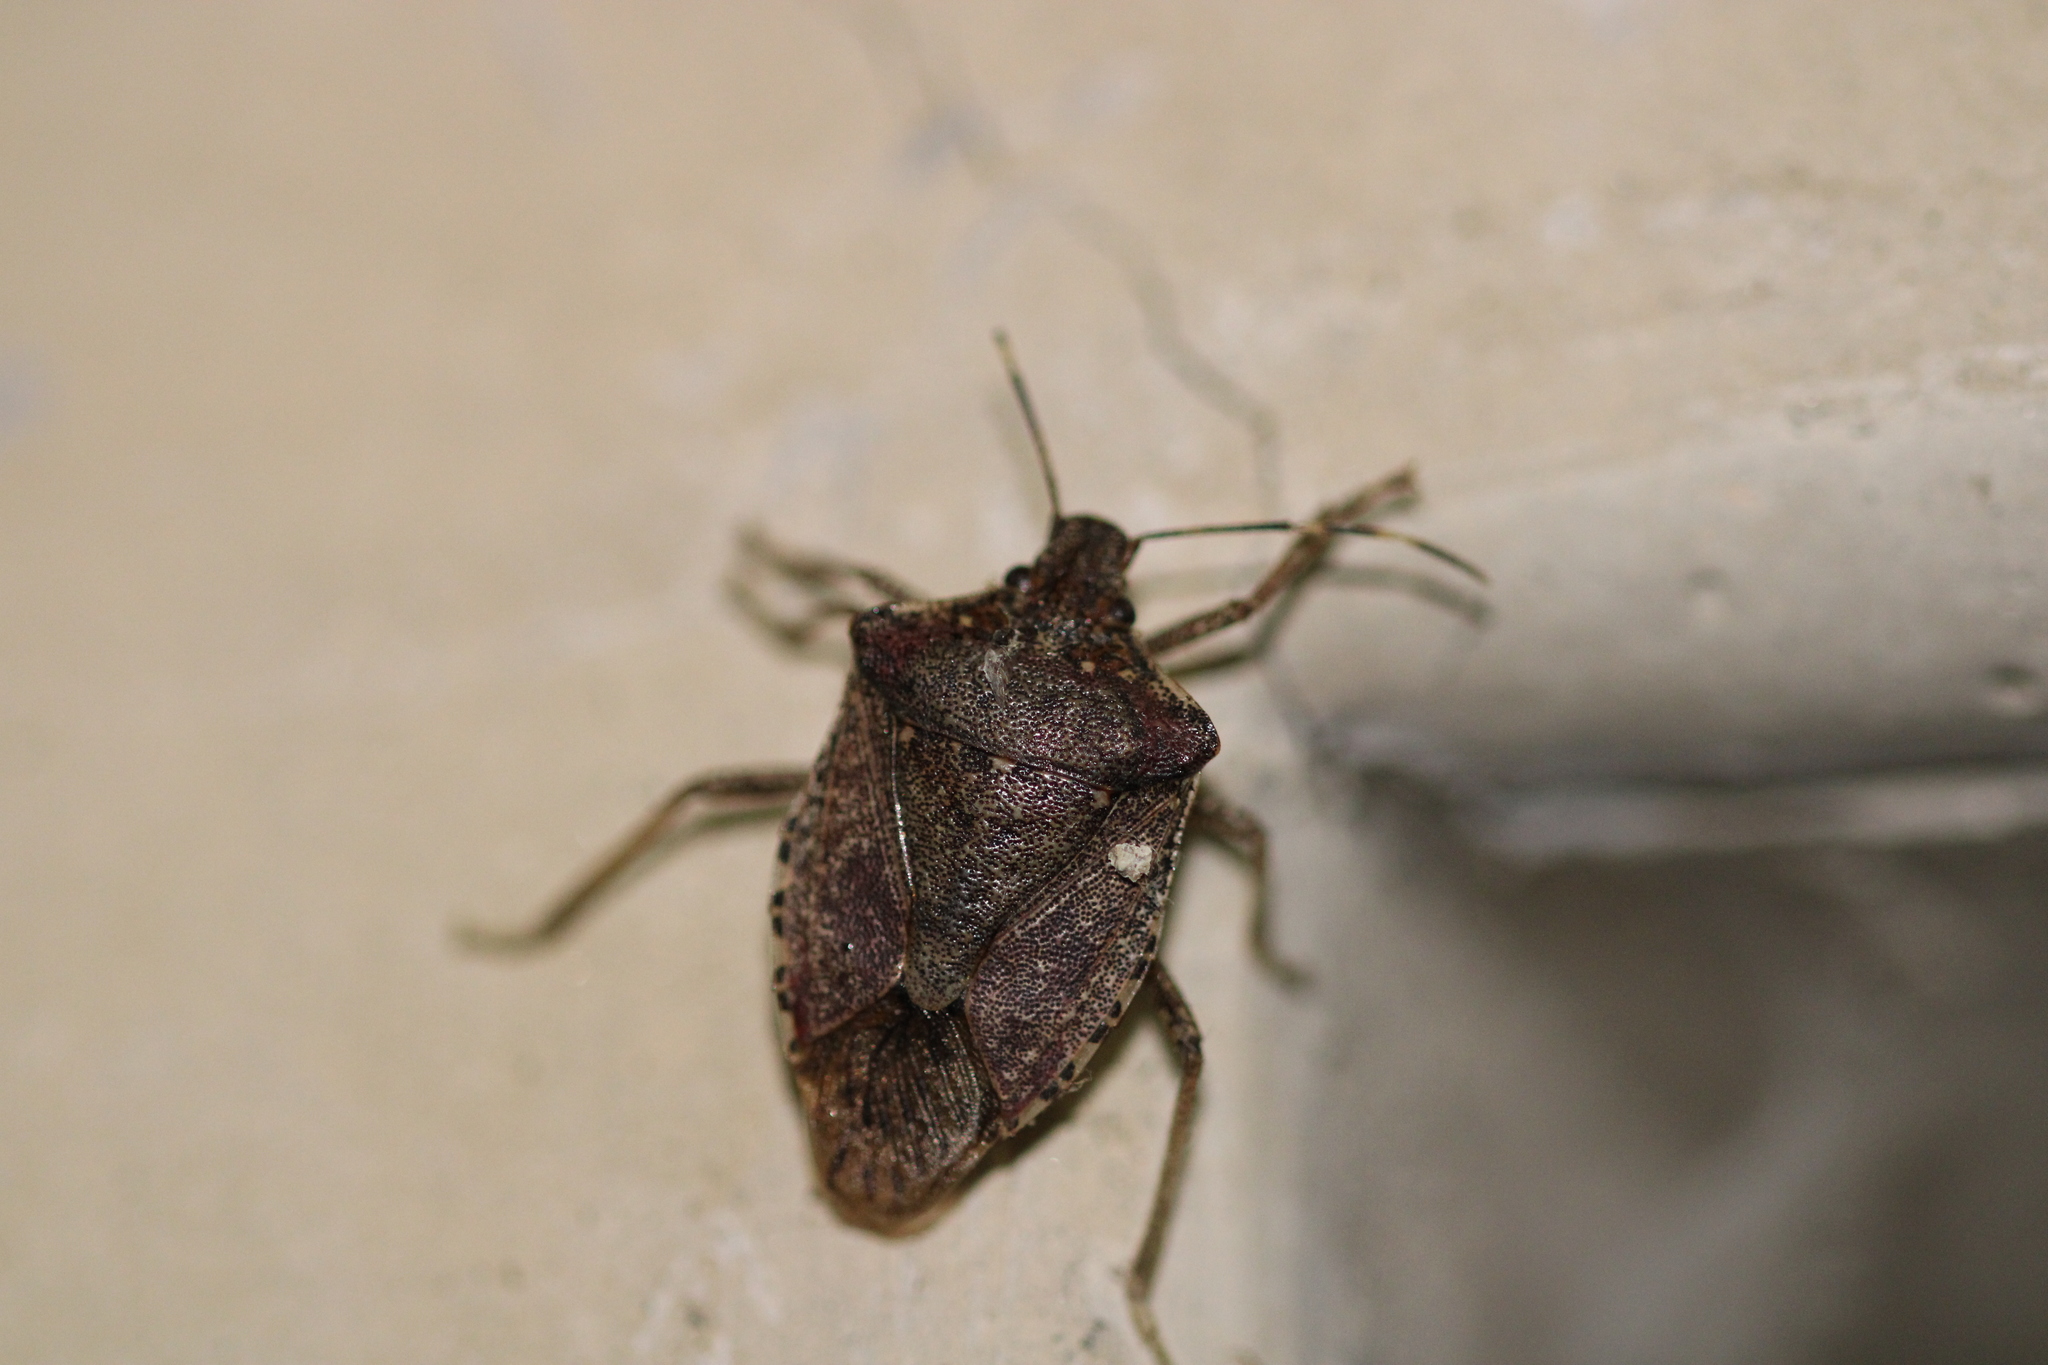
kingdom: Animalia
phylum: Arthropoda
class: Insecta
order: Hemiptera
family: Pentatomidae
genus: Halyomorpha
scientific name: Halyomorpha halys
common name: Brown marmorated stink bug
